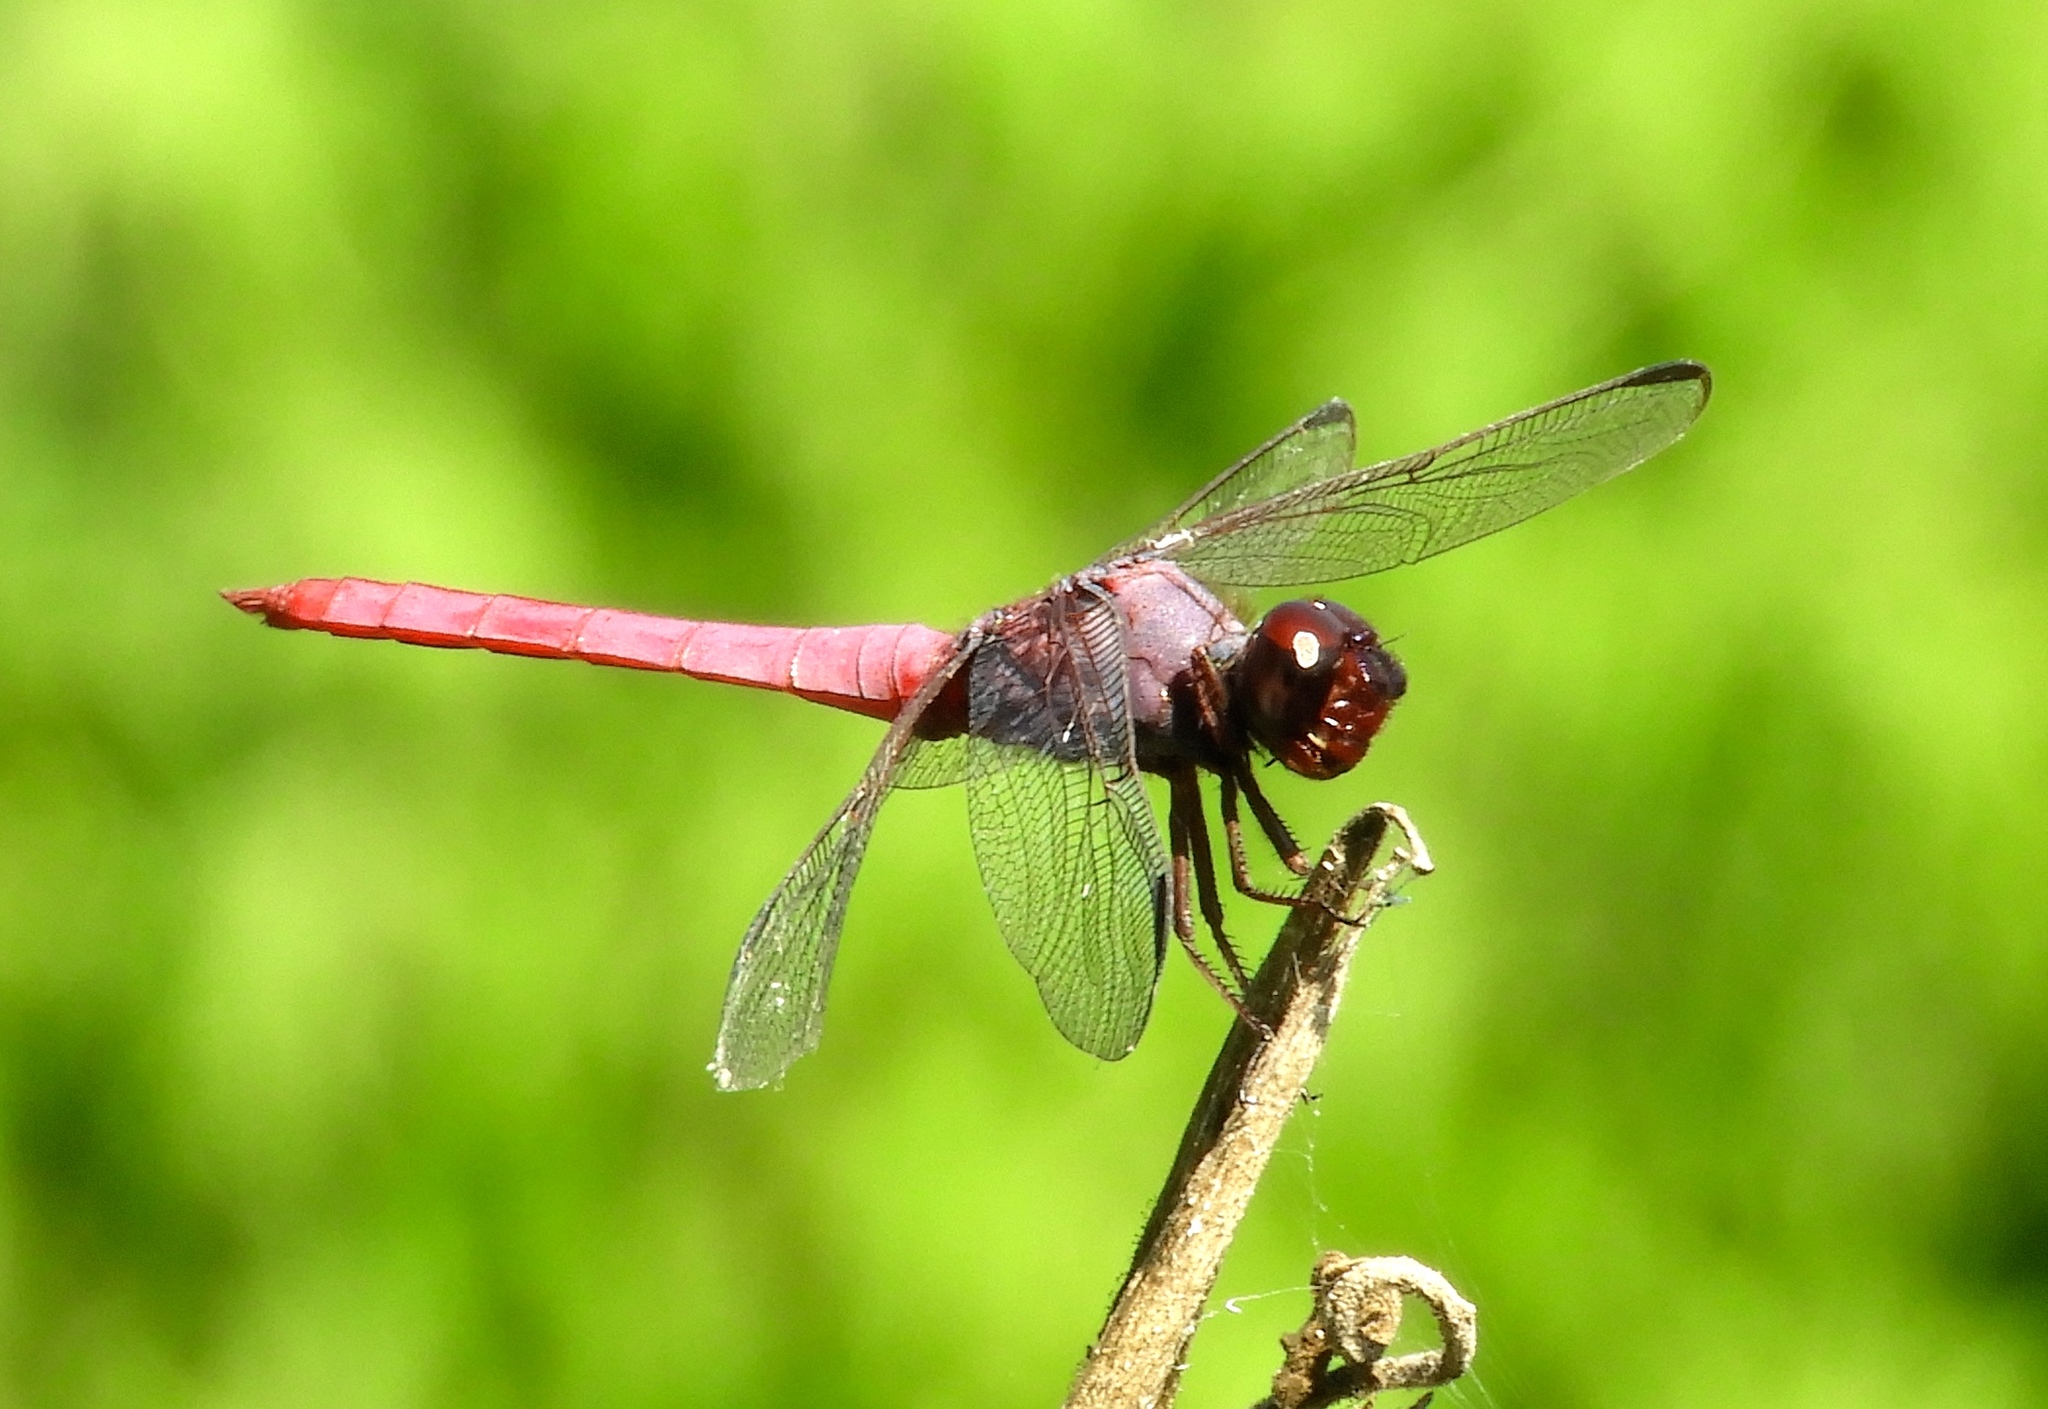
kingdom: Animalia
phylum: Arthropoda
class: Insecta
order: Odonata
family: Libellulidae
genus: Orthemis
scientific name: Orthemis ferruginea
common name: Roseate skimmer
